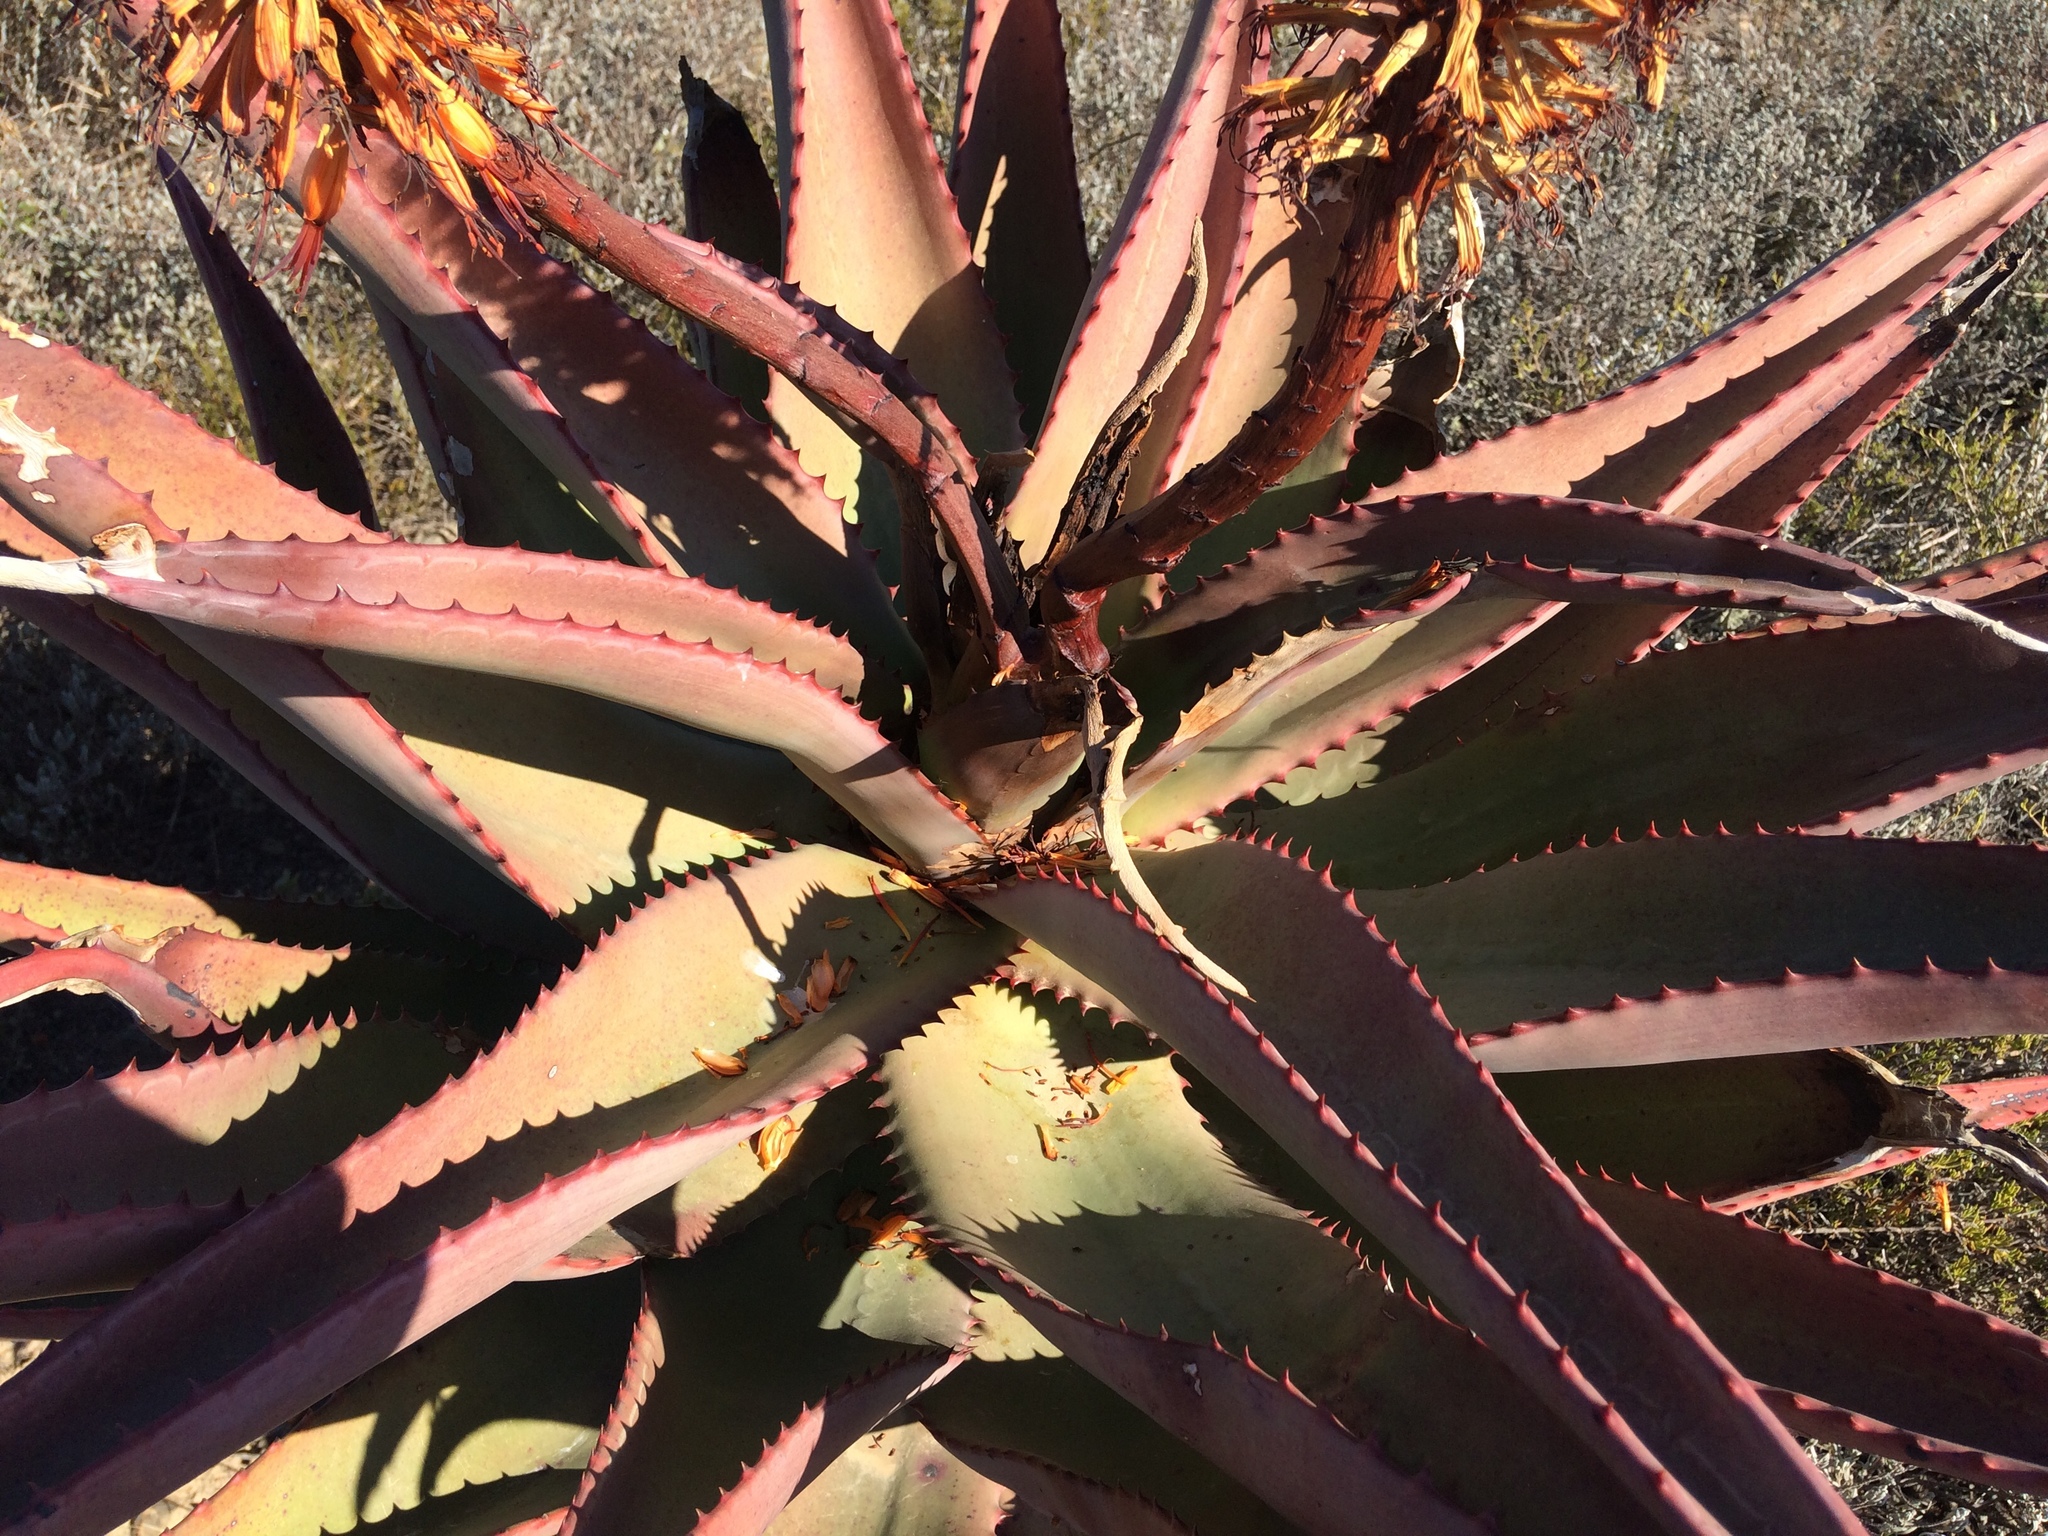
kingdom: Plantae
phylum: Tracheophyta
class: Liliopsida
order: Asparagales
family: Asphodelaceae
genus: Aloe
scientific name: Aloe ferox
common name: Bitter aloe
